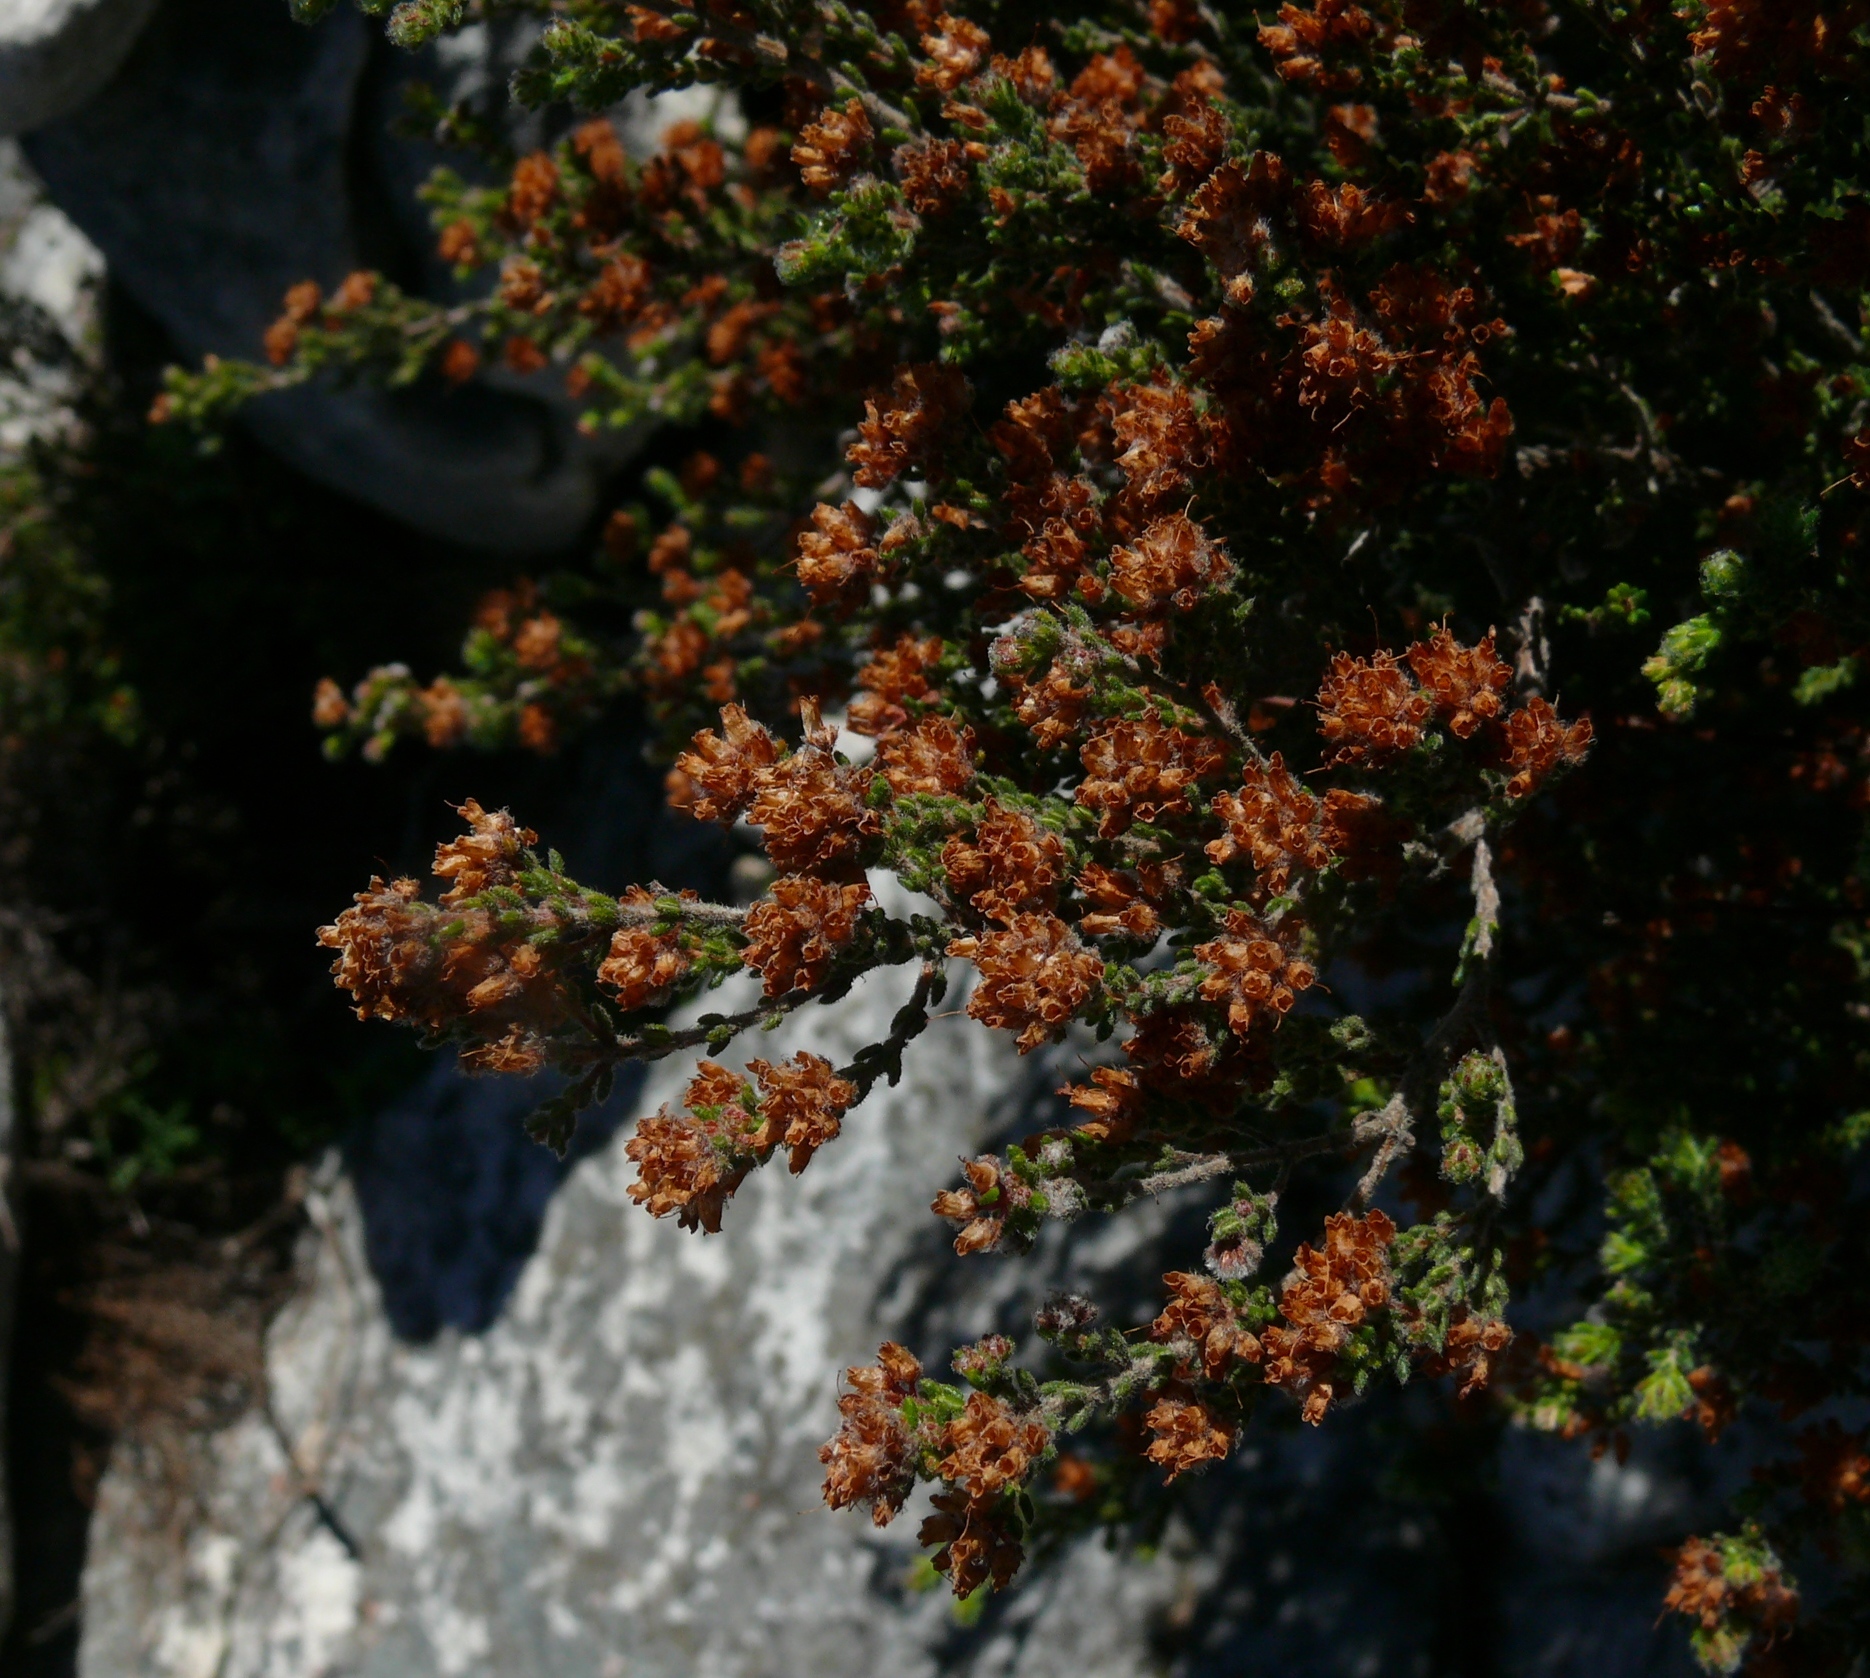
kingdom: Plantae
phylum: Tracheophyta
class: Magnoliopsida
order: Ericales
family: Ericaceae
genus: Erica
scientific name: Erica ericoides
